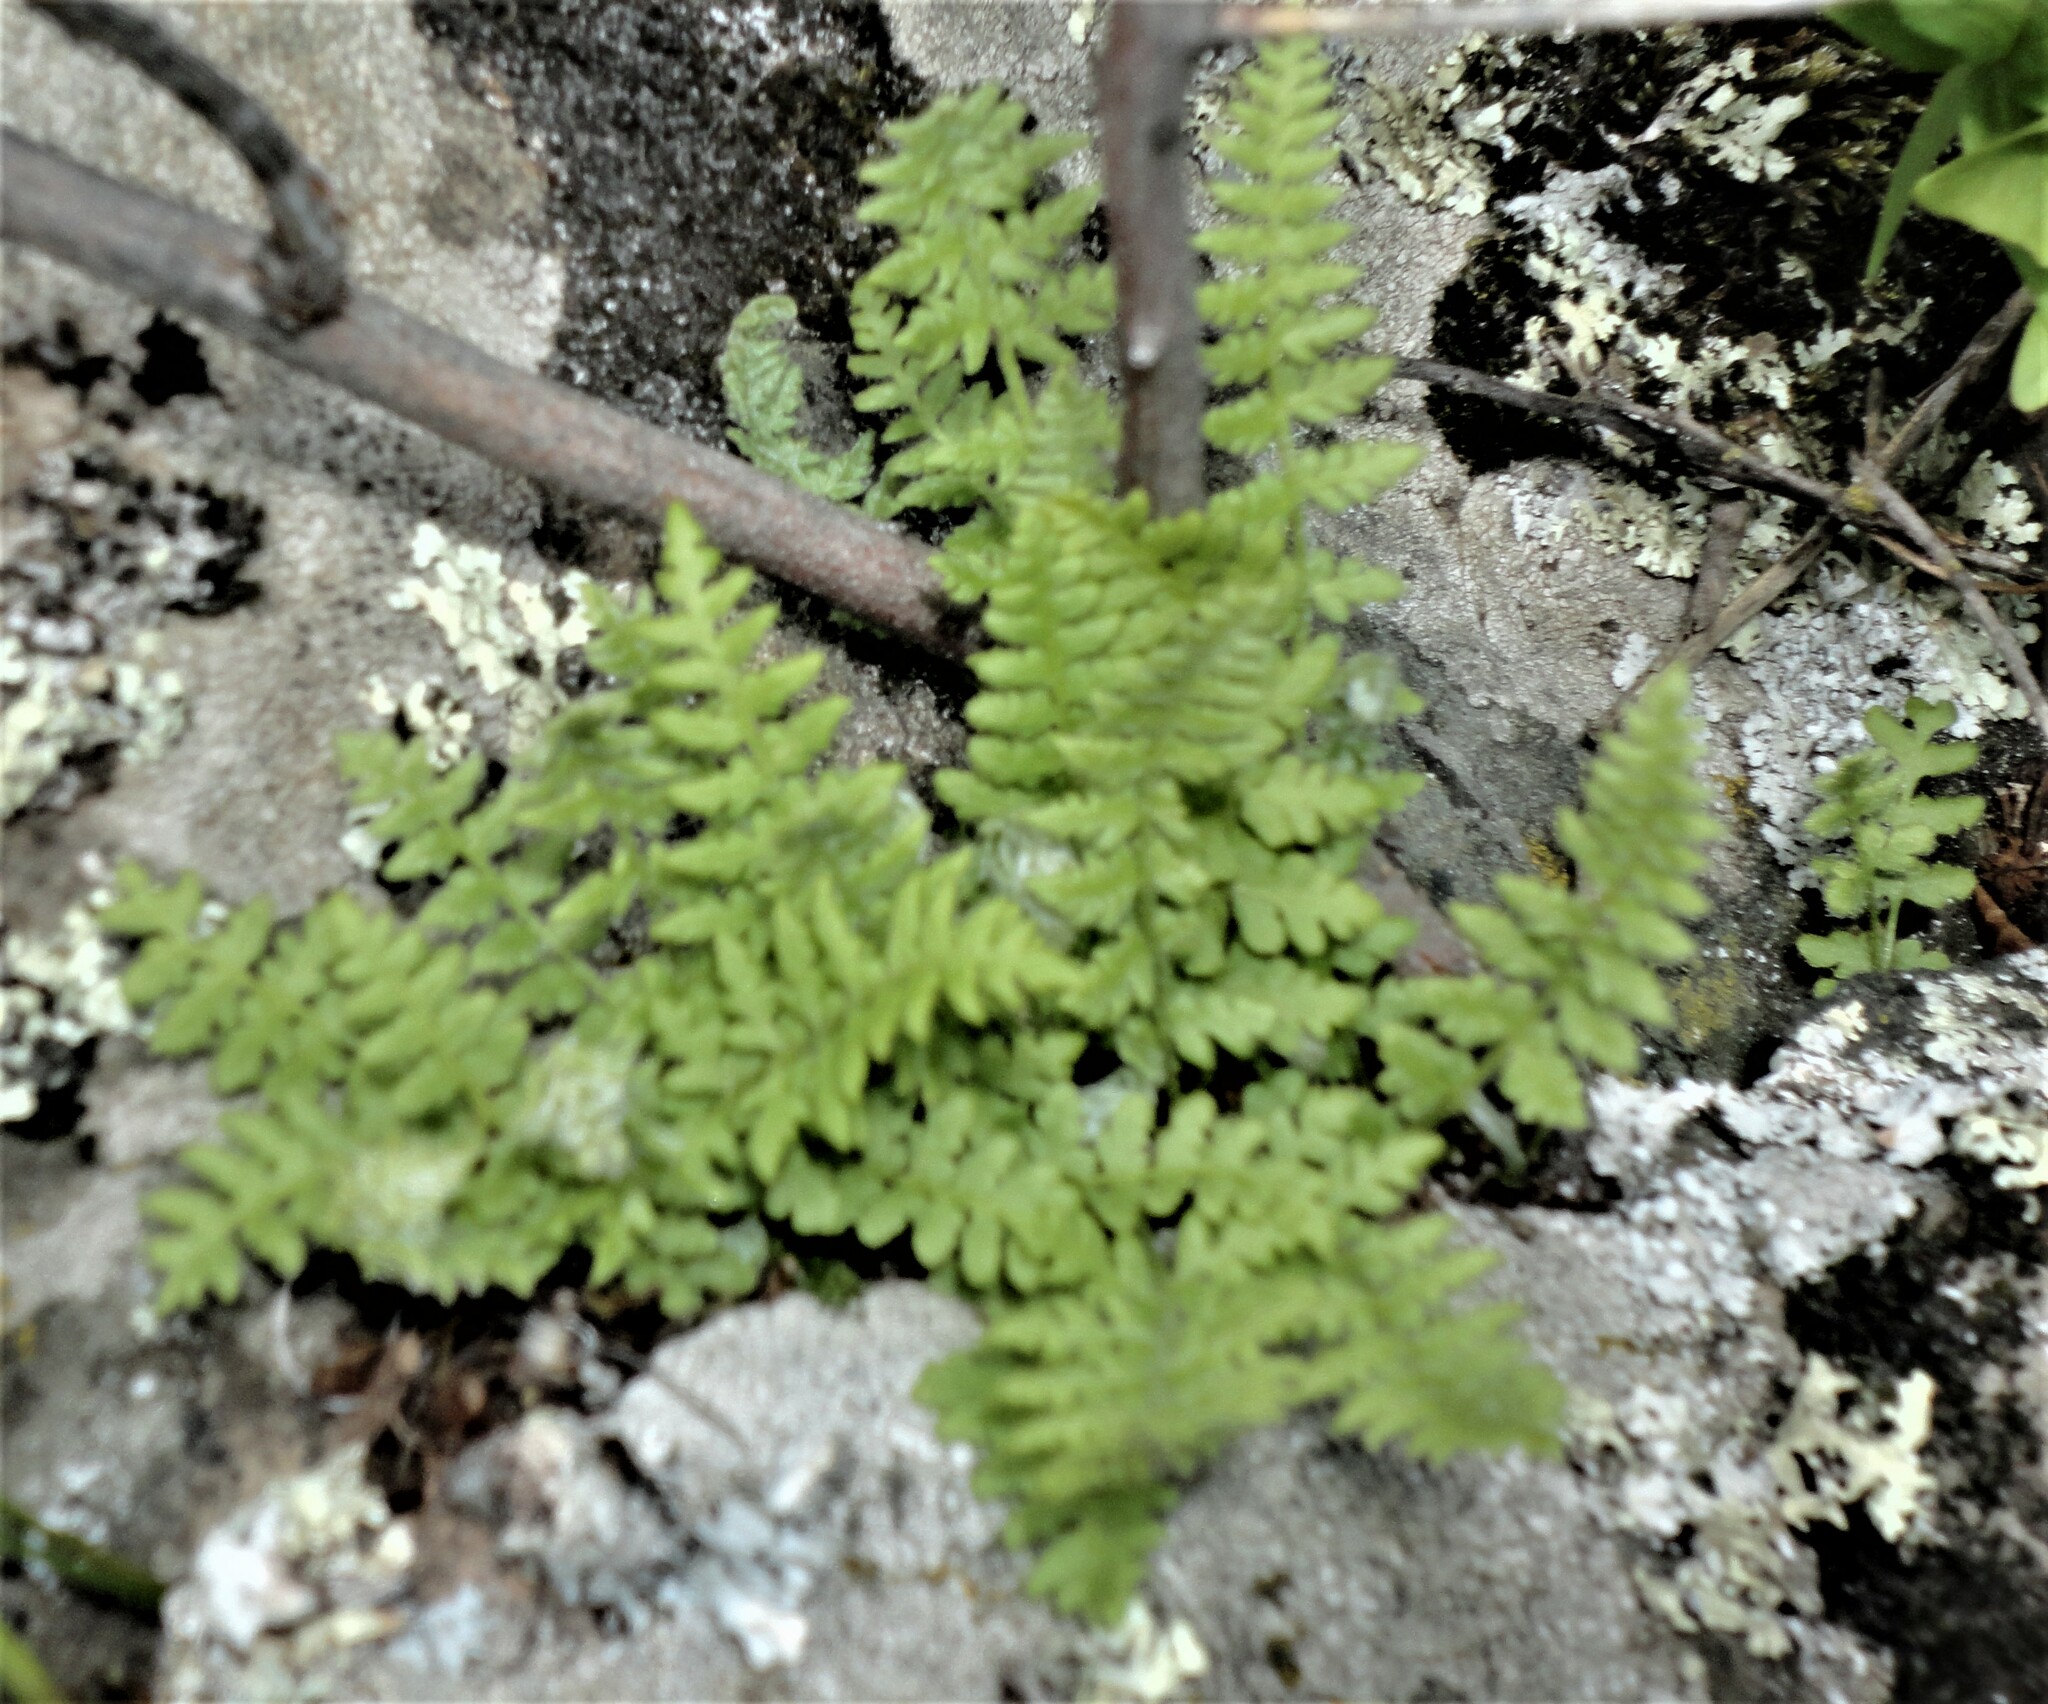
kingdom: Plantae
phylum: Tracheophyta
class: Polypodiopsida
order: Polypodiales
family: Woodsiaceae
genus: Woodsia
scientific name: Woodsia ilvensis
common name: Fragrant woodsia
